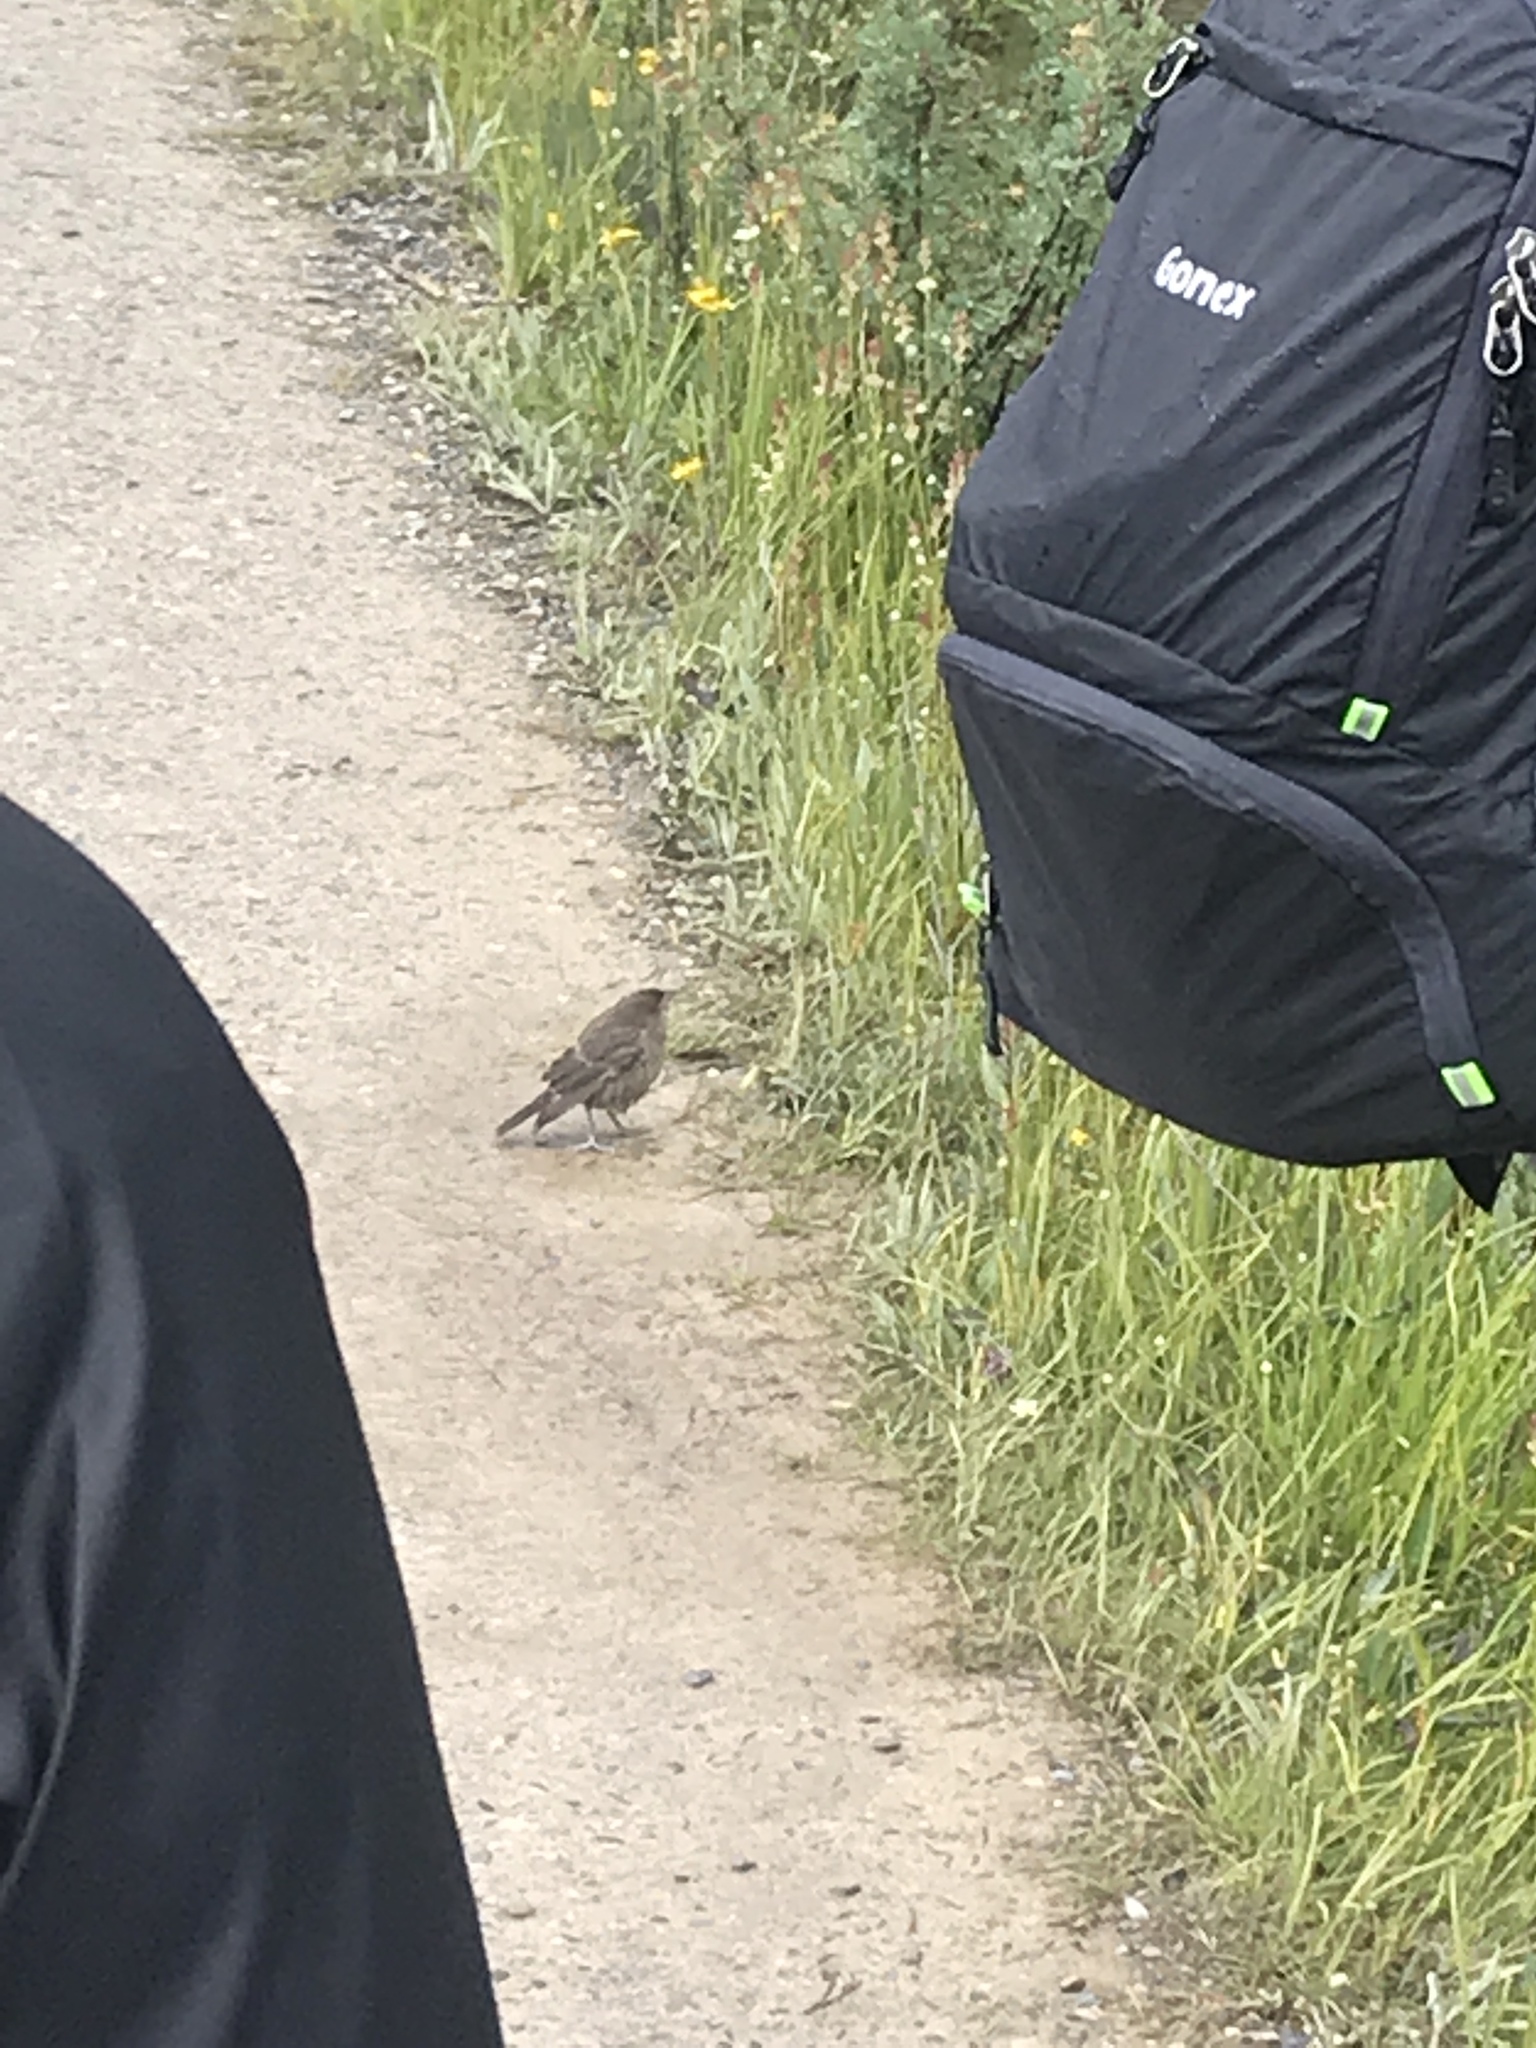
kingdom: Animalia
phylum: Chordata
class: Aves
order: Passeriformes
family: Icteridae
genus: Molothrus
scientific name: Molothrus ater
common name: Brown-headed cowbird
